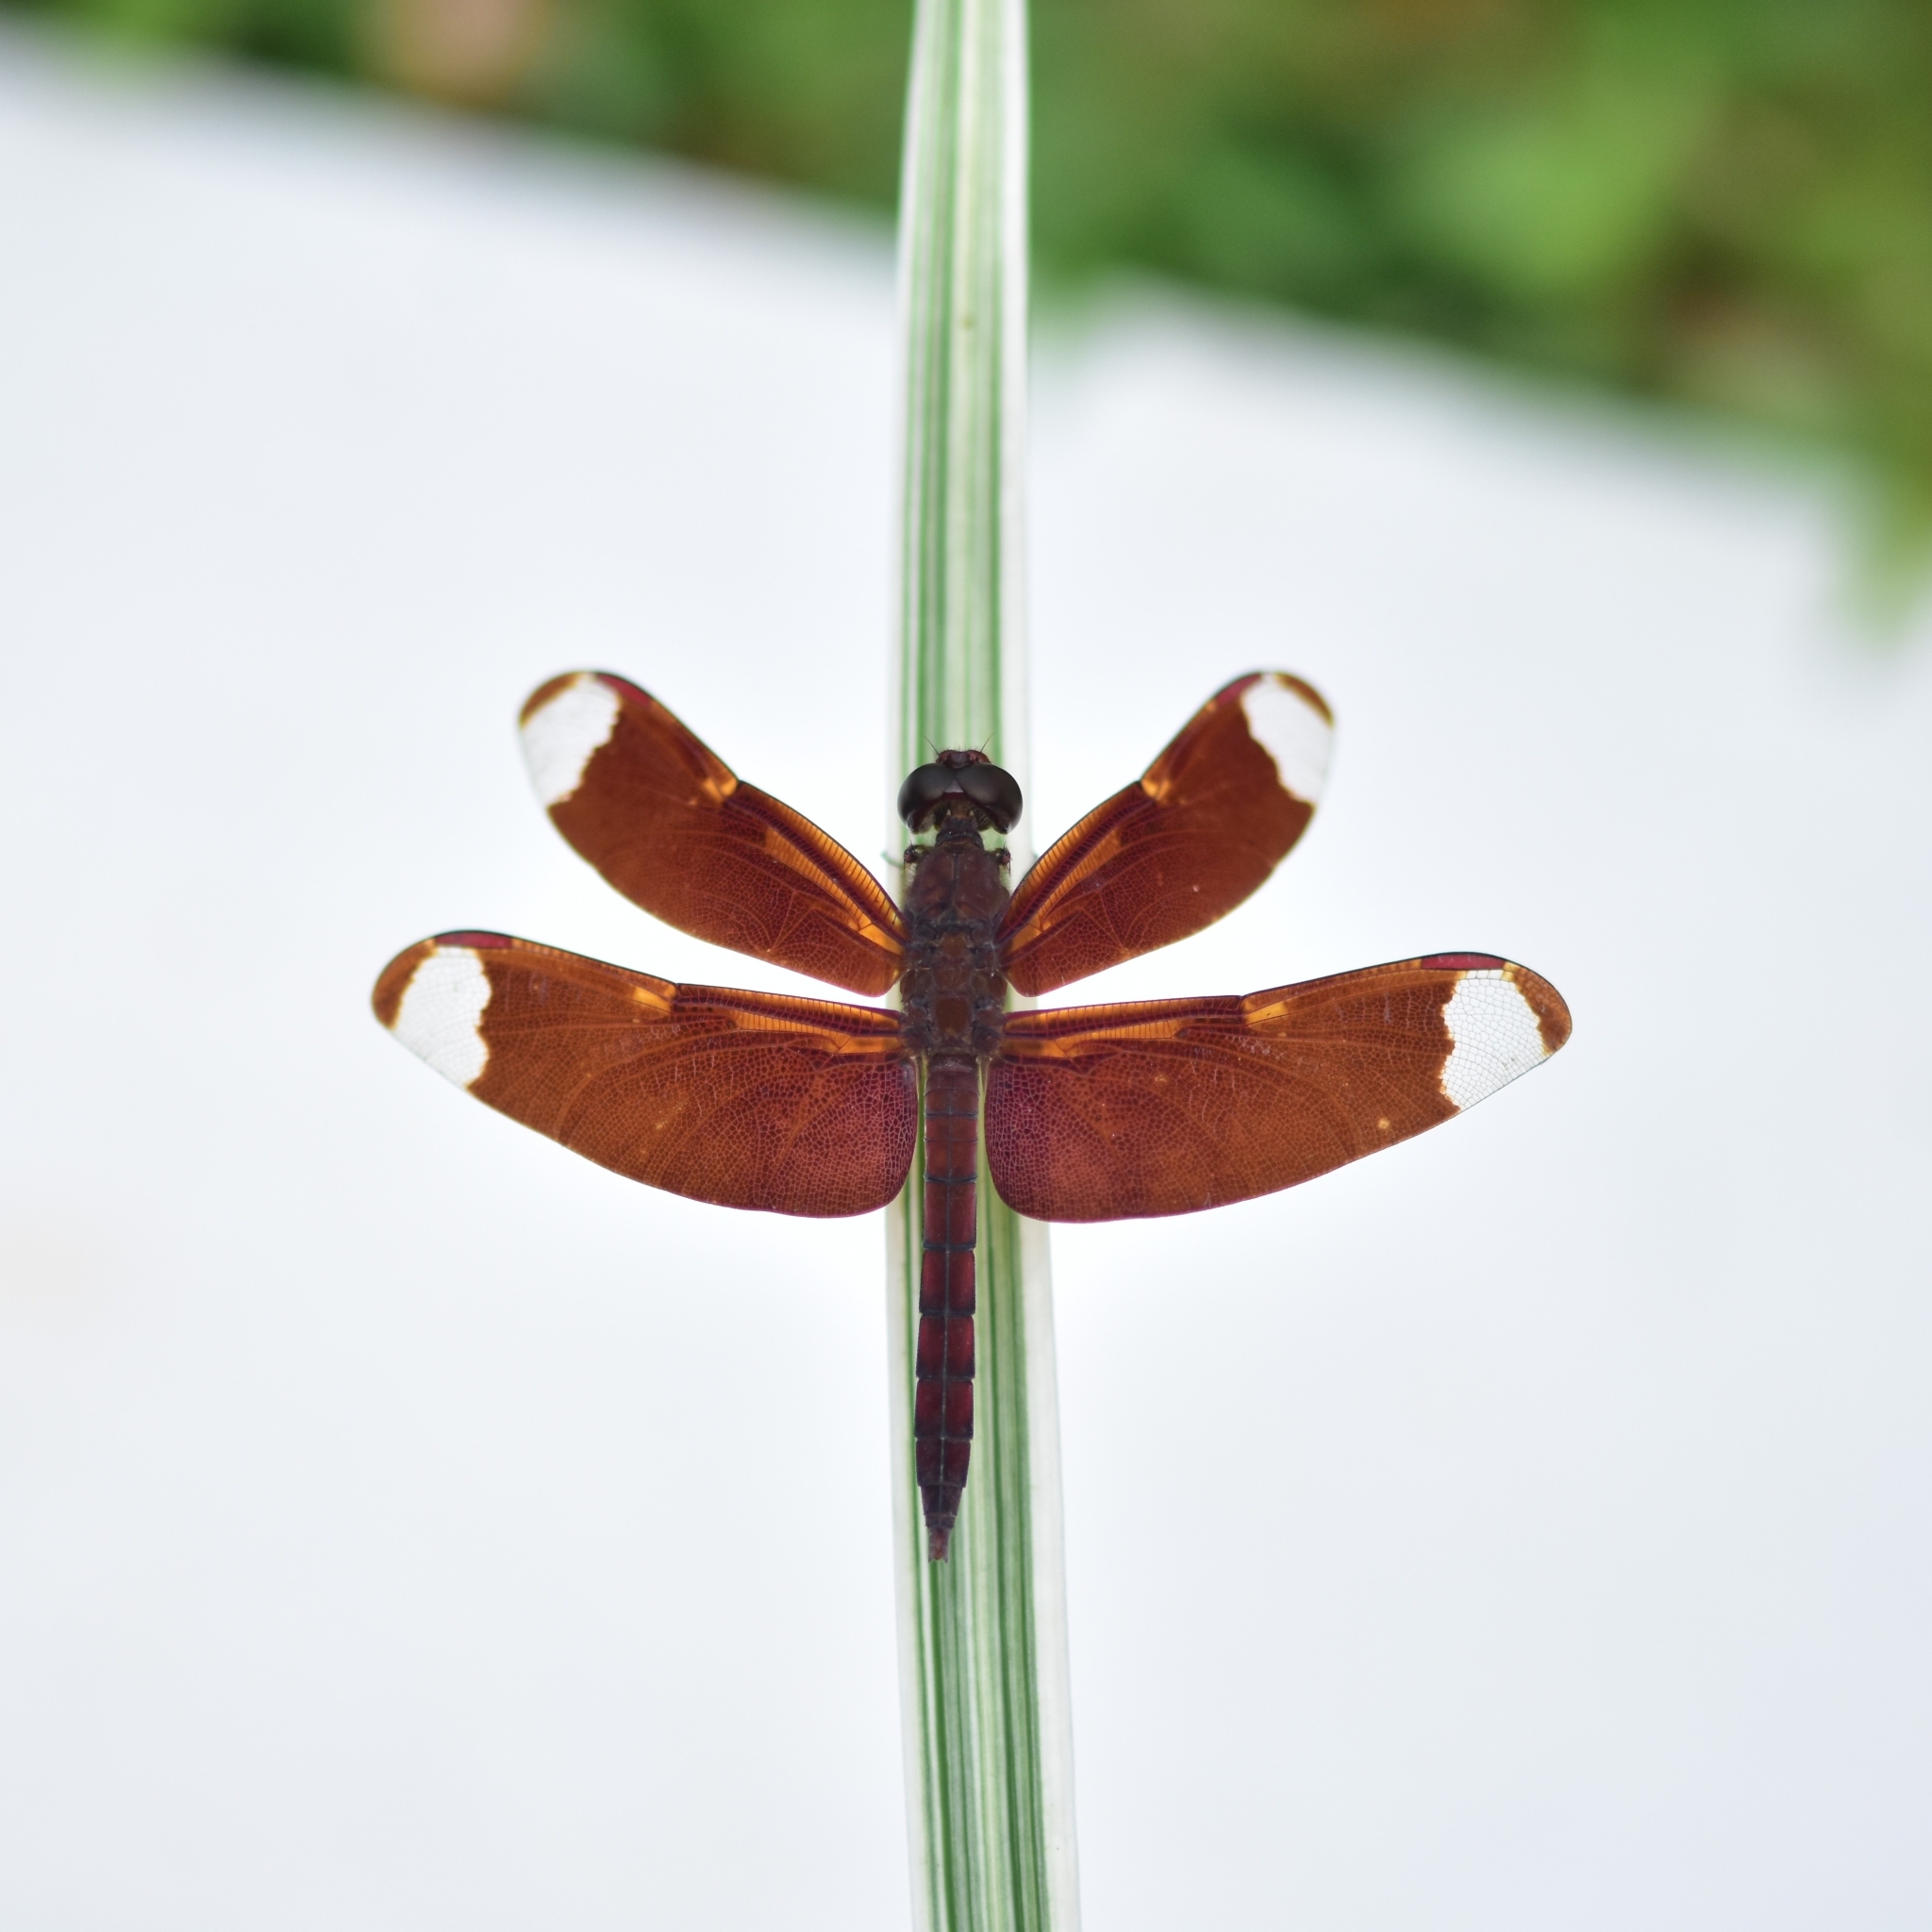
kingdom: Animalia
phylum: Arthropoda
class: Insecta
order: Odonata
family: Libellulidae
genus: Neurothemis
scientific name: Neurothemis fulvia
